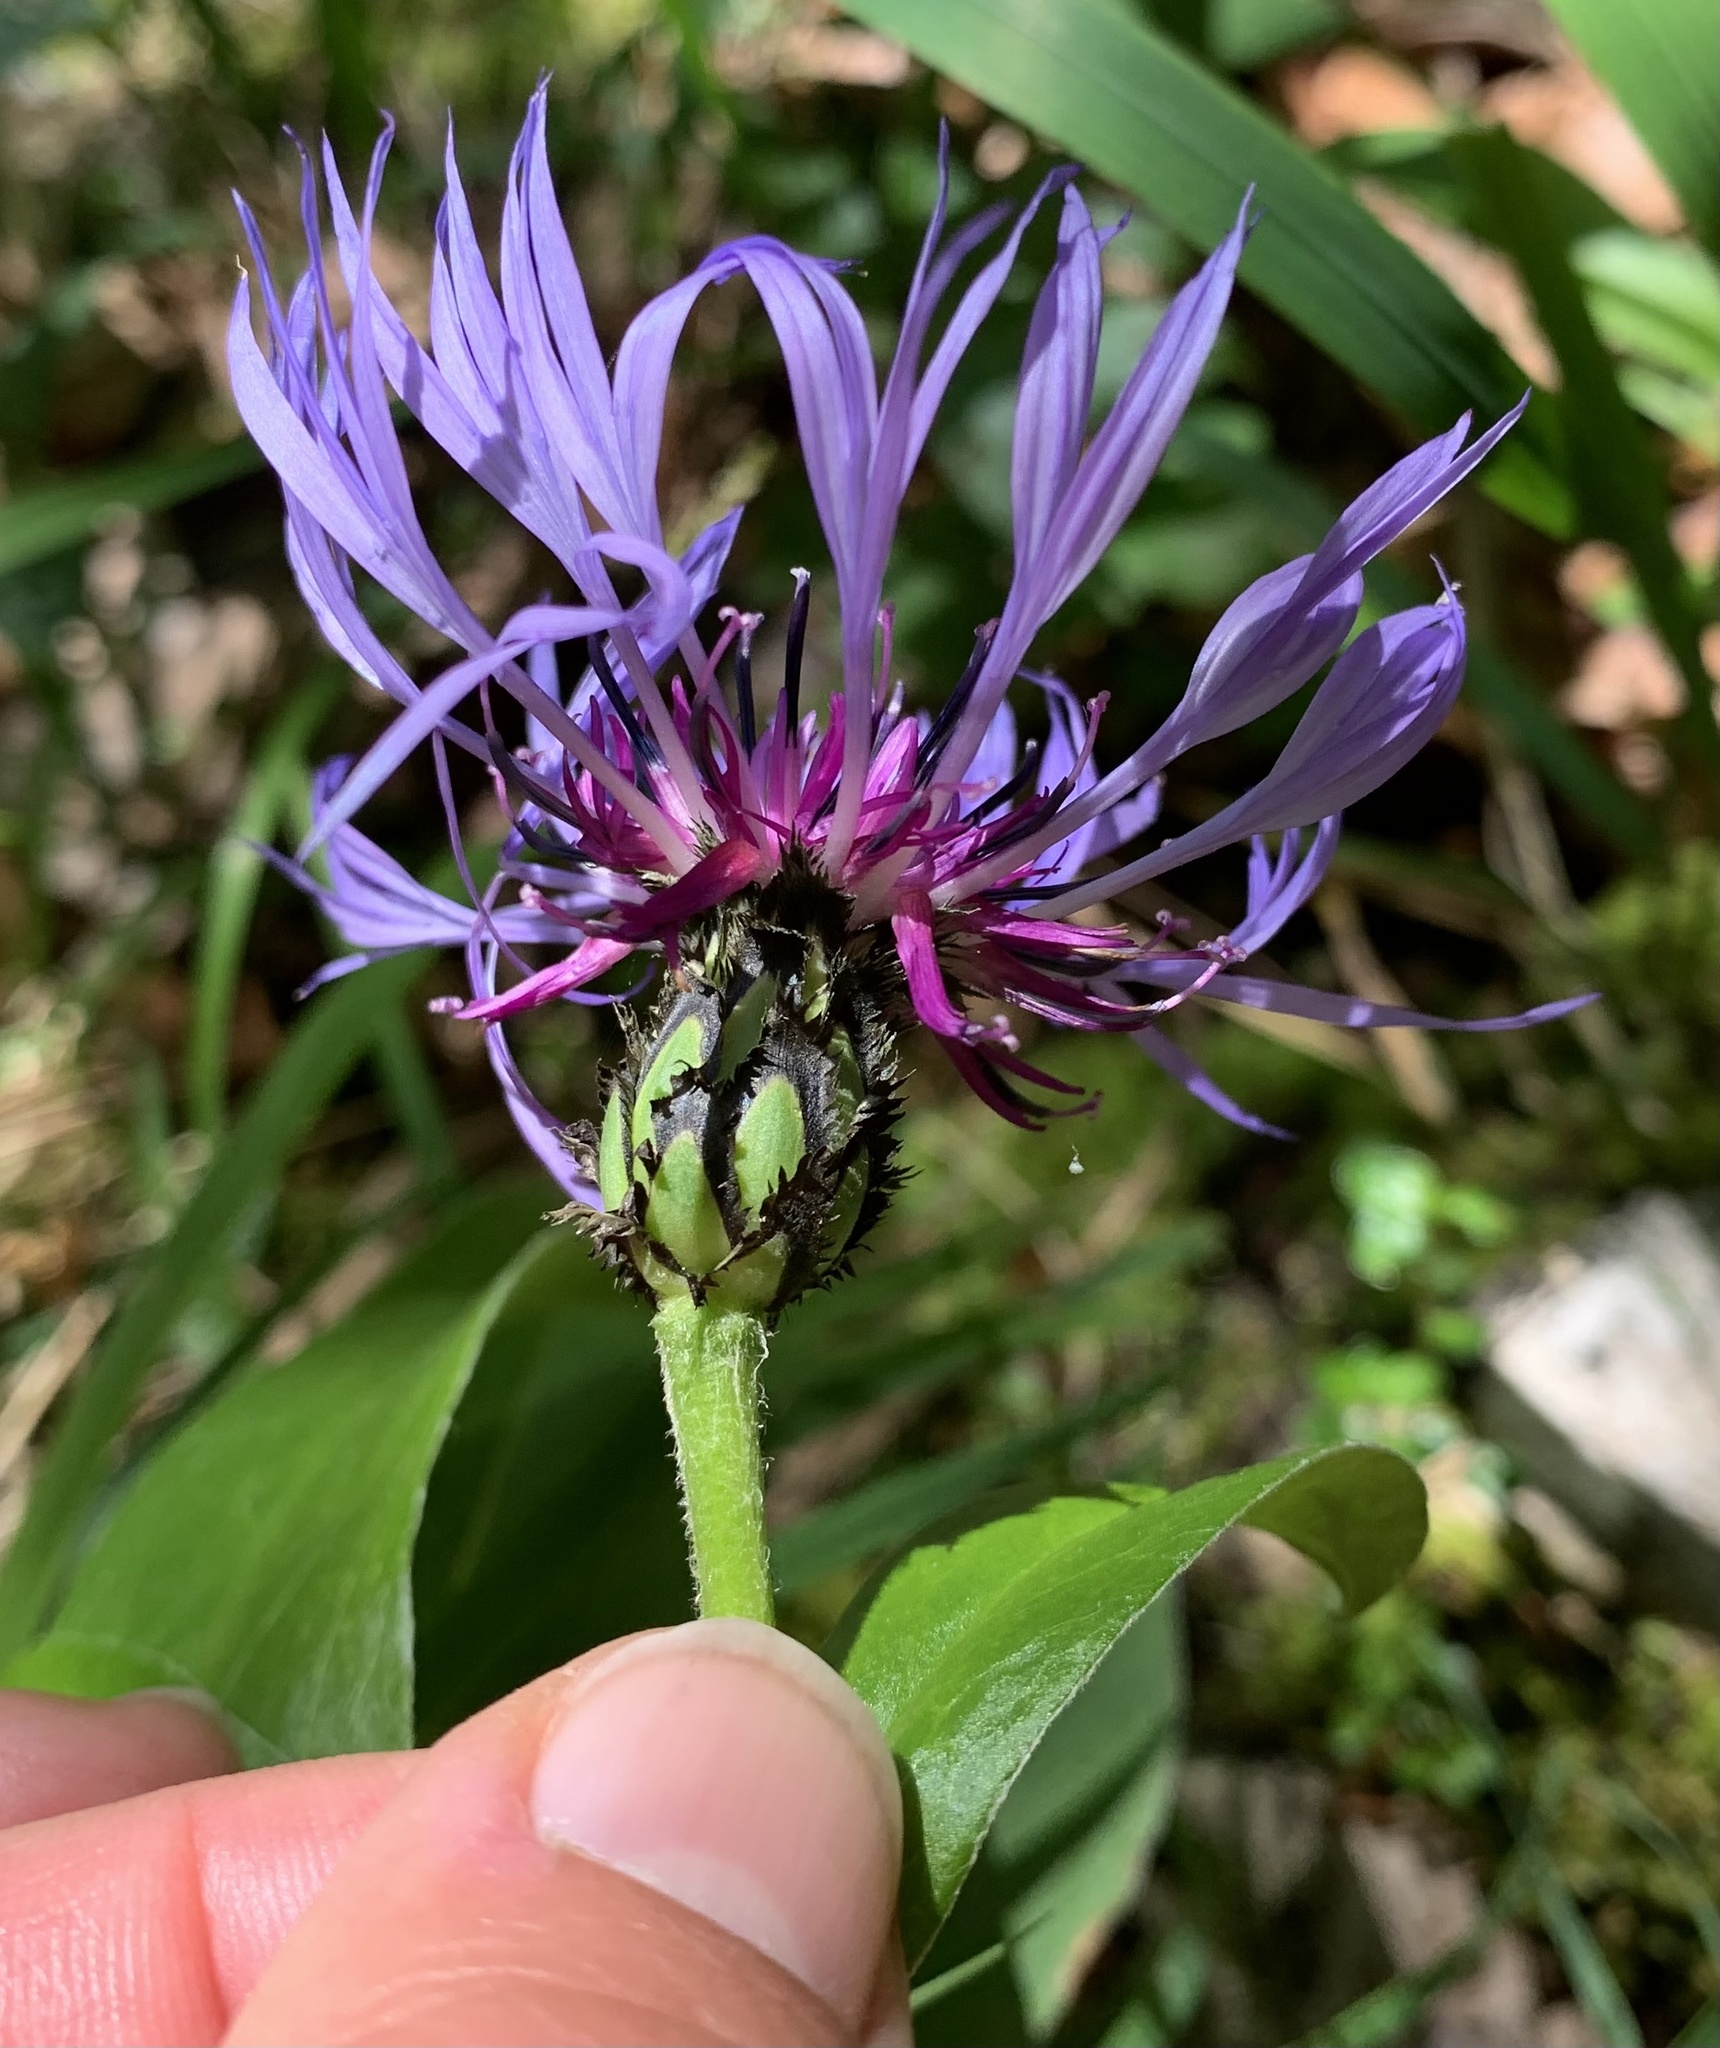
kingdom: Plantae
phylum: Tracheophyta
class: Magnoliopsida
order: Asterales
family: Asteraceae
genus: Centaurea
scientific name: Centaurea montana
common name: Perennial cornflower
